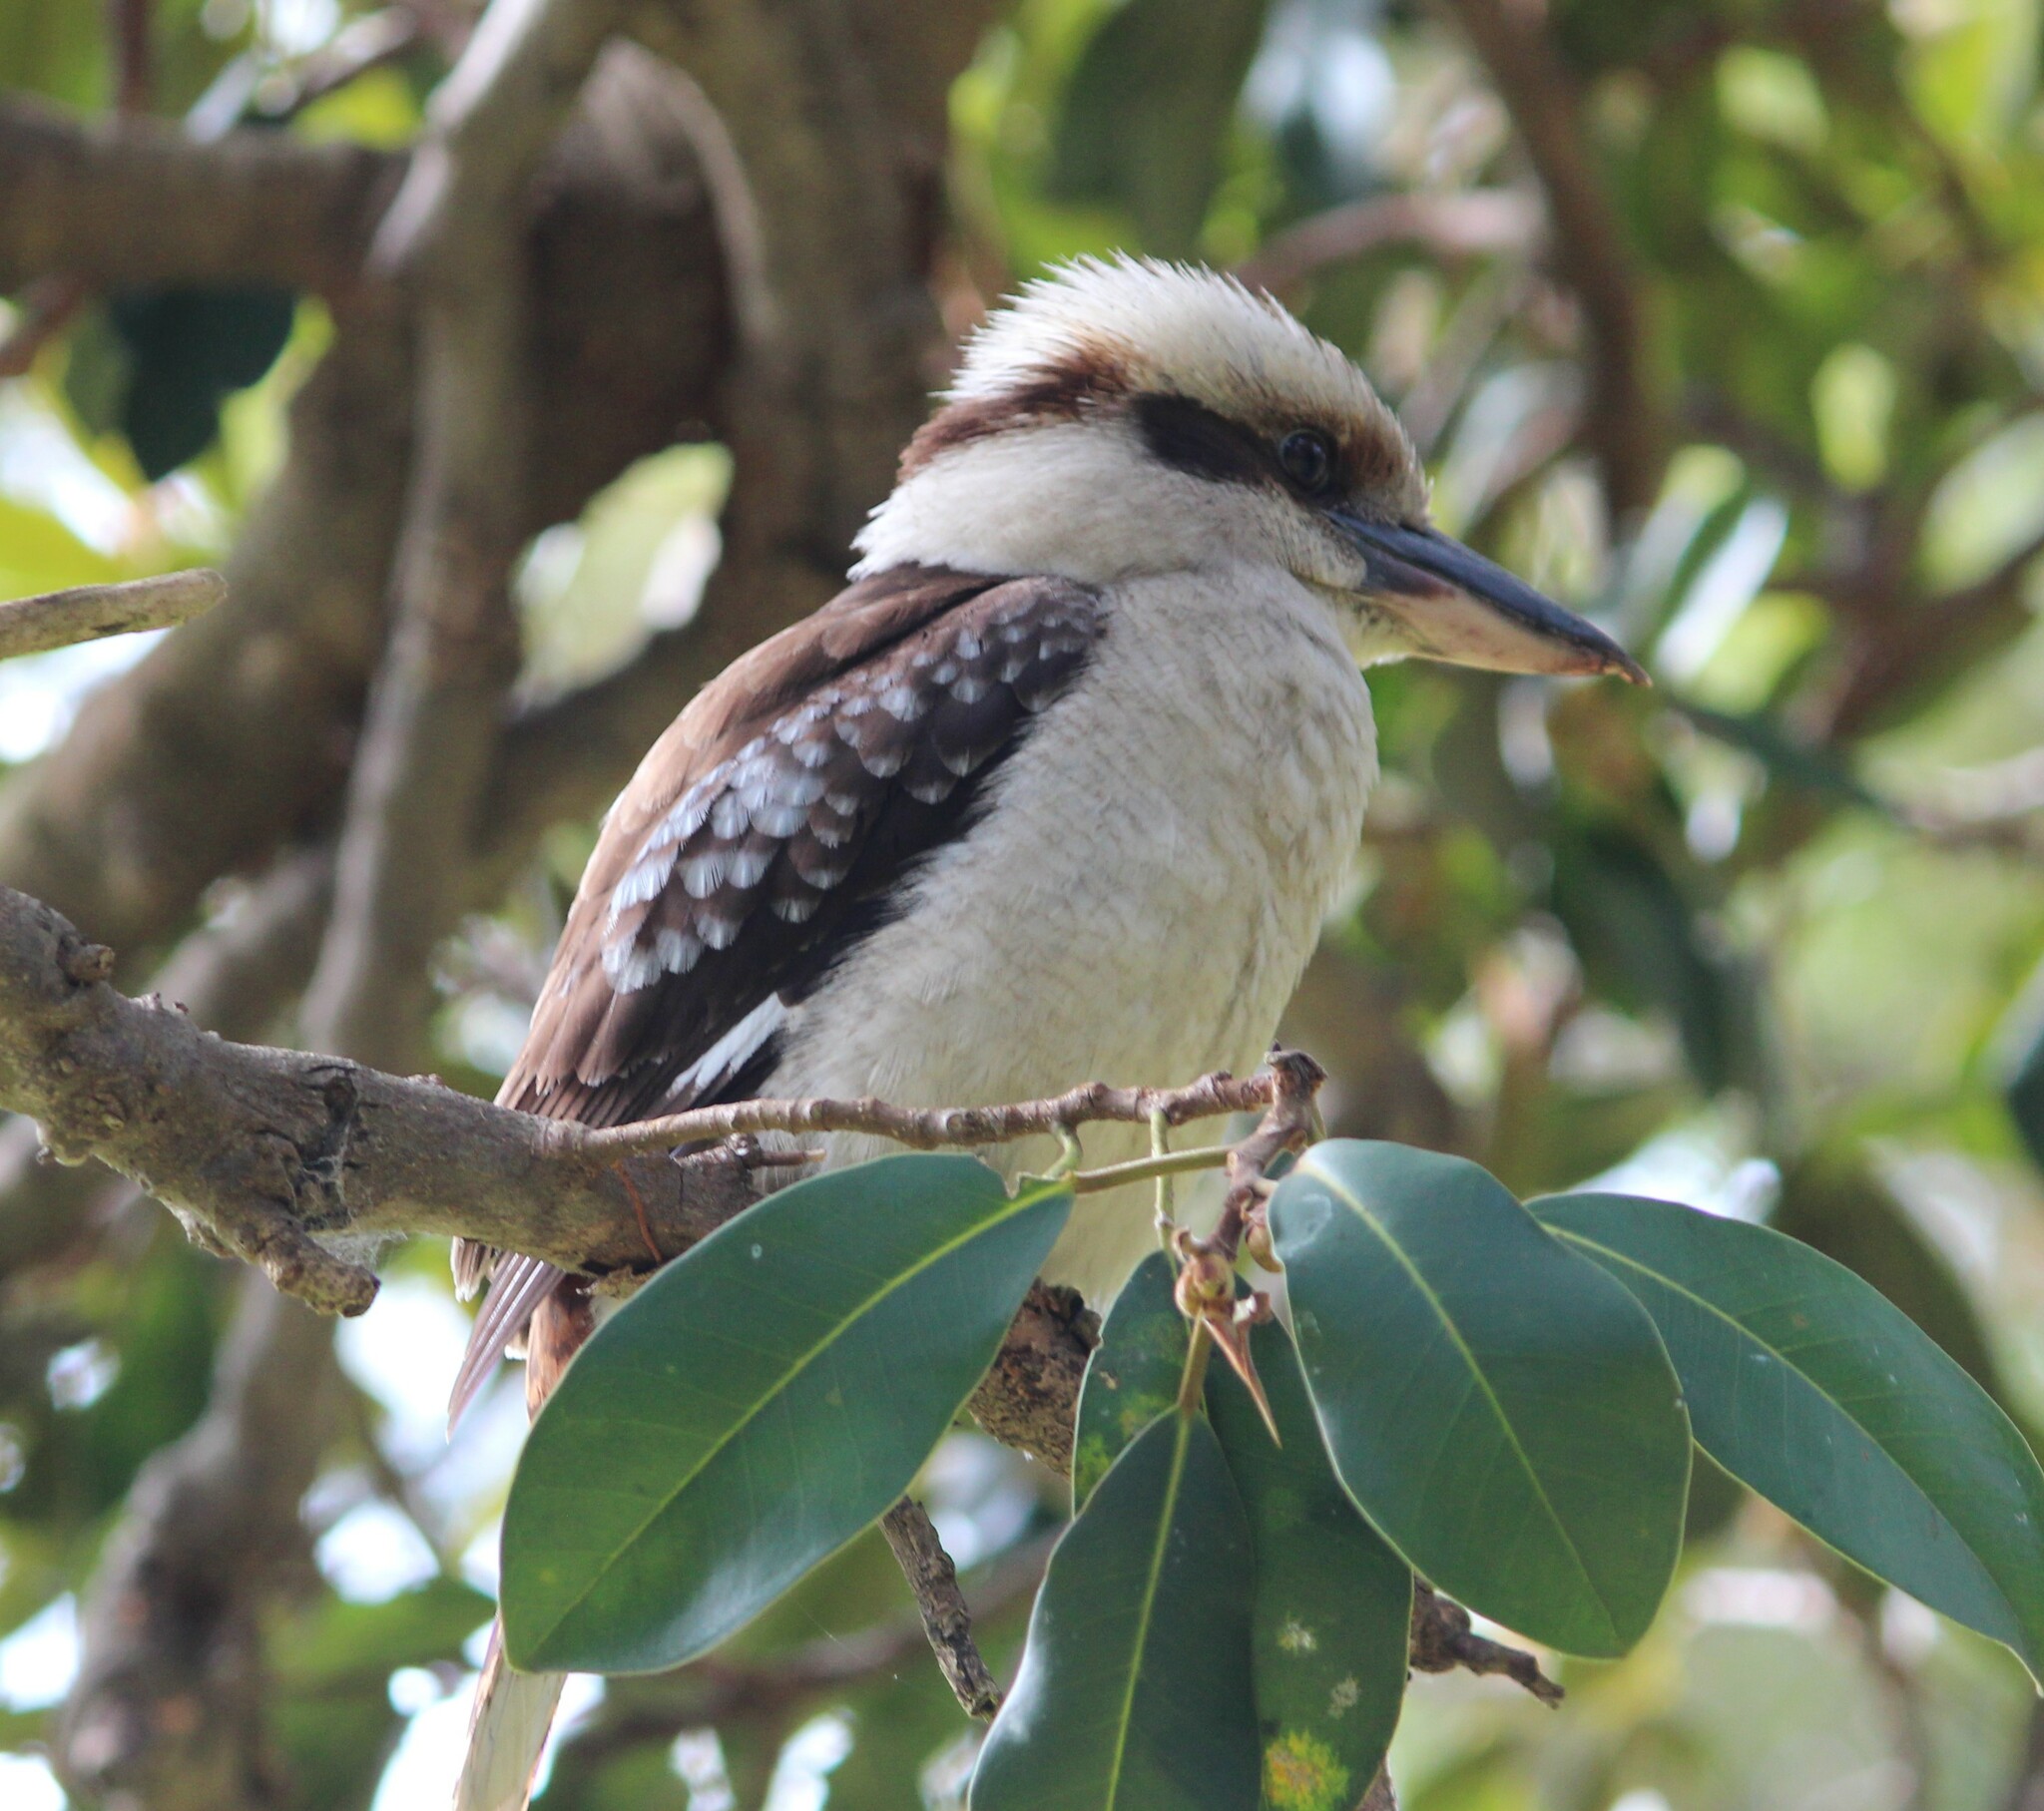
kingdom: Animalia
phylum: Chordata
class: Aves
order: Coraciiformes
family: Alcedinidae
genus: Dacelo
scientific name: Dacelo novaeguineae
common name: Laughing kookaburra
